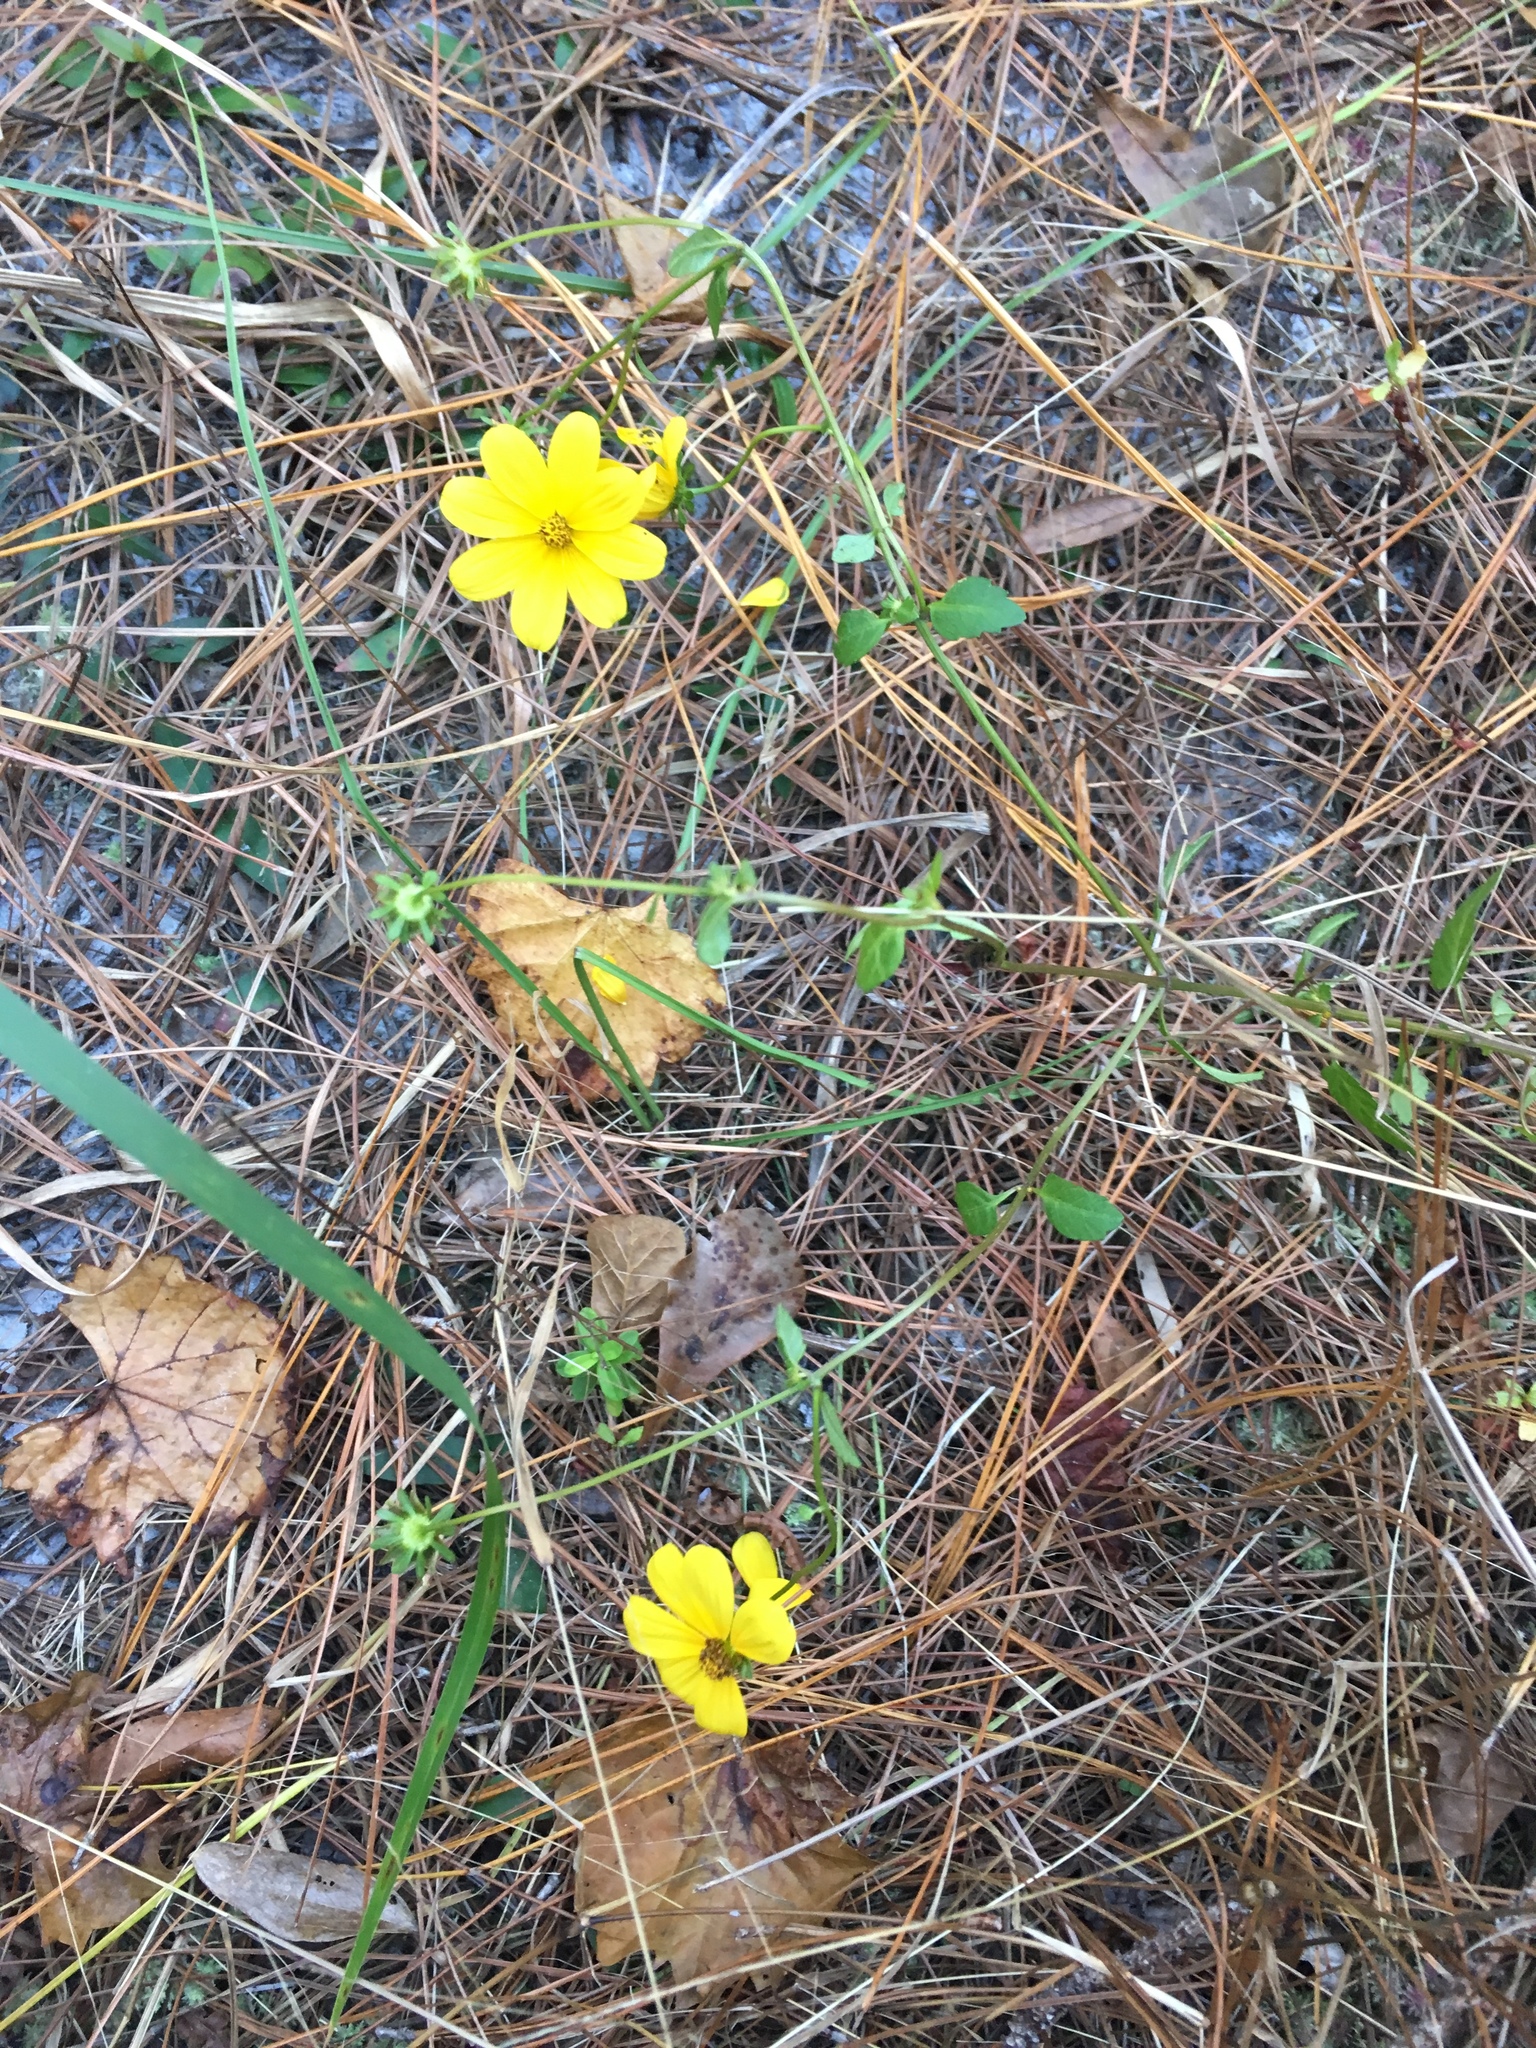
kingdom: Plantae
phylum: Tracheophyta
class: Magnoliopsida
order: Asterales
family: Asteraceae
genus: Bidens
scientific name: Bidens mitis
